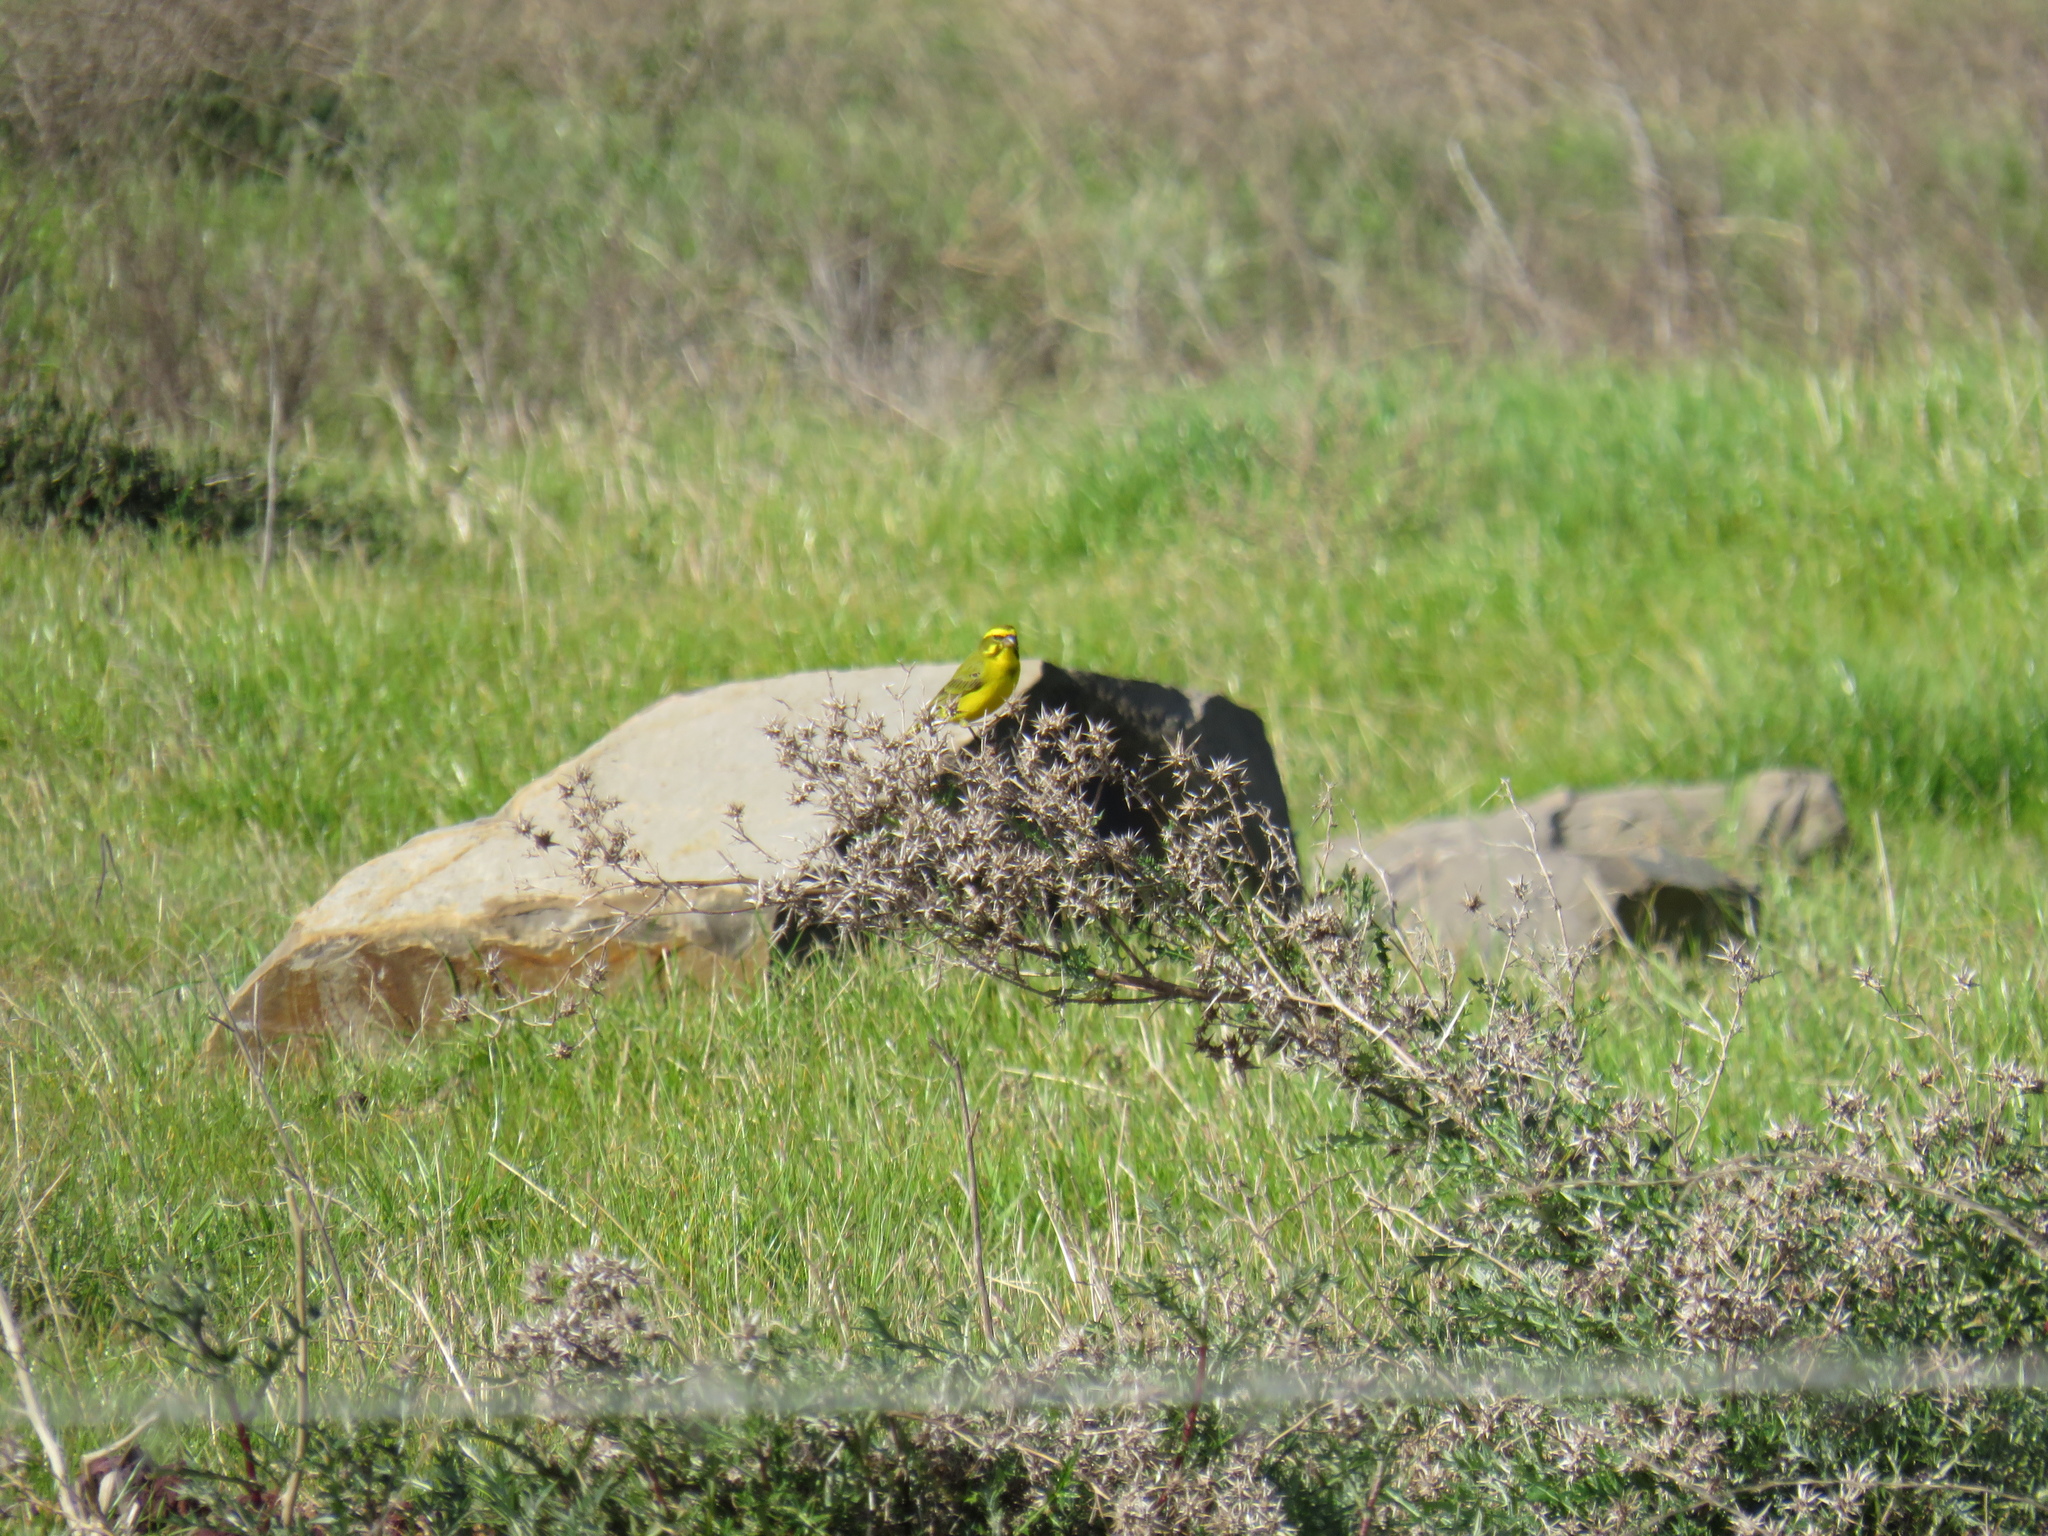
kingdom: Plantae
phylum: Tracheophyta
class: Magnoliopsida
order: Asterales
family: Asteraceae
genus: Berkheya
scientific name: Berkheya rigida
